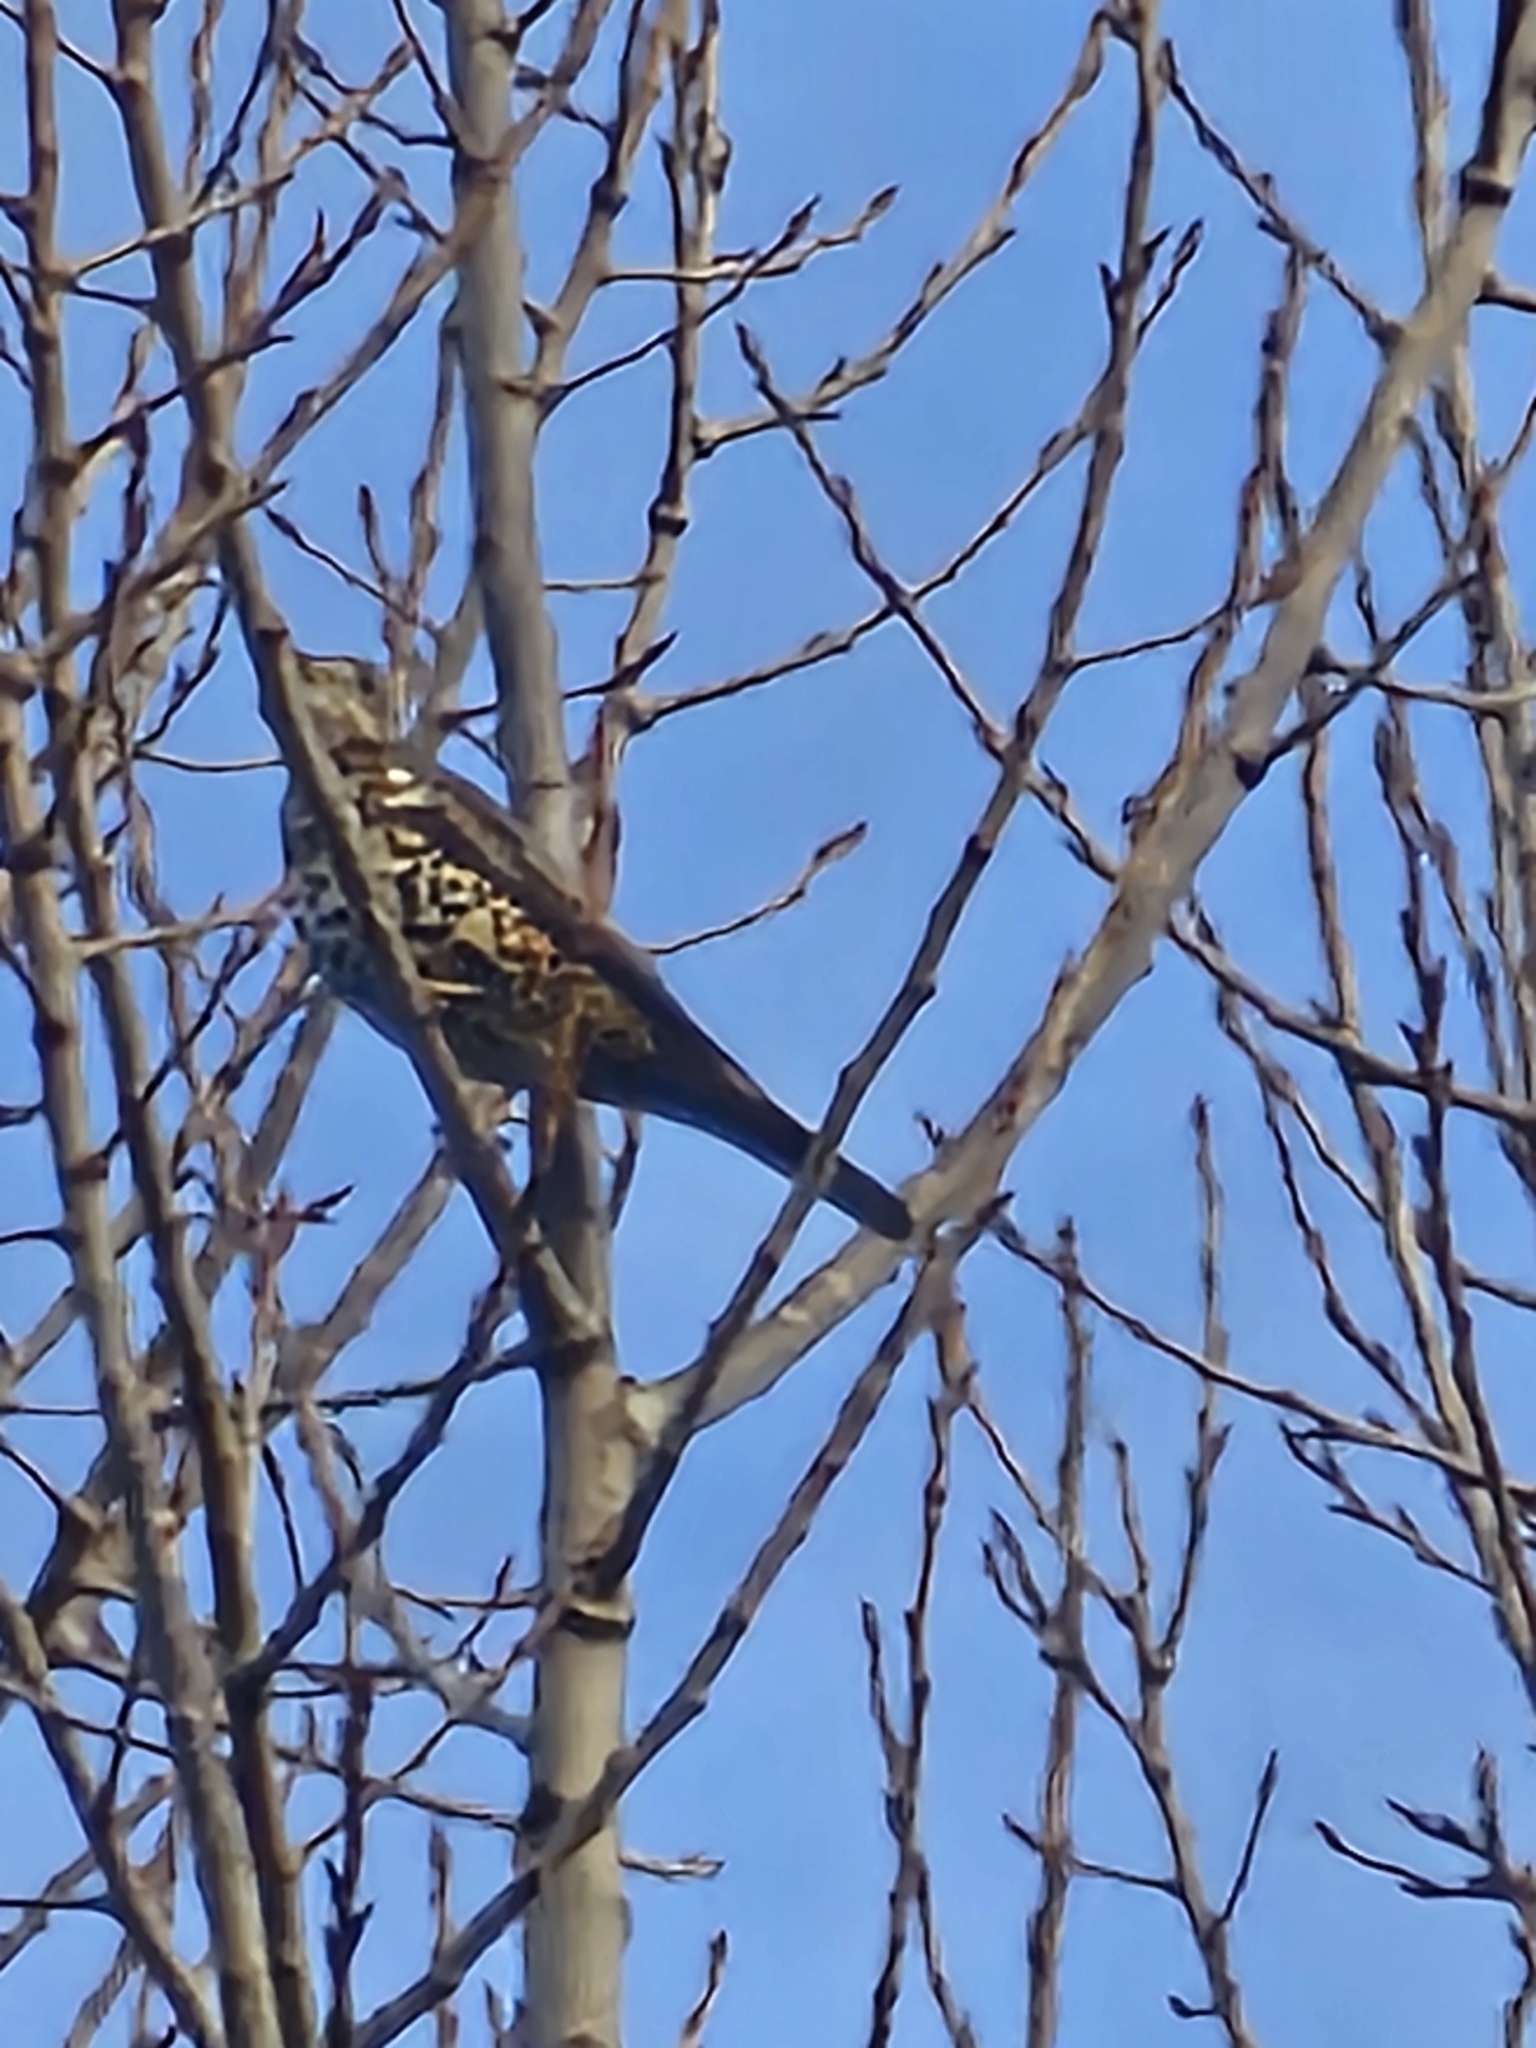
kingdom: Animalia
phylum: Chordata
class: Aves
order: Passeriformes
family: Turdidae
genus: Turdus
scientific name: Turdus viscivorus
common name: Mistle thrush
